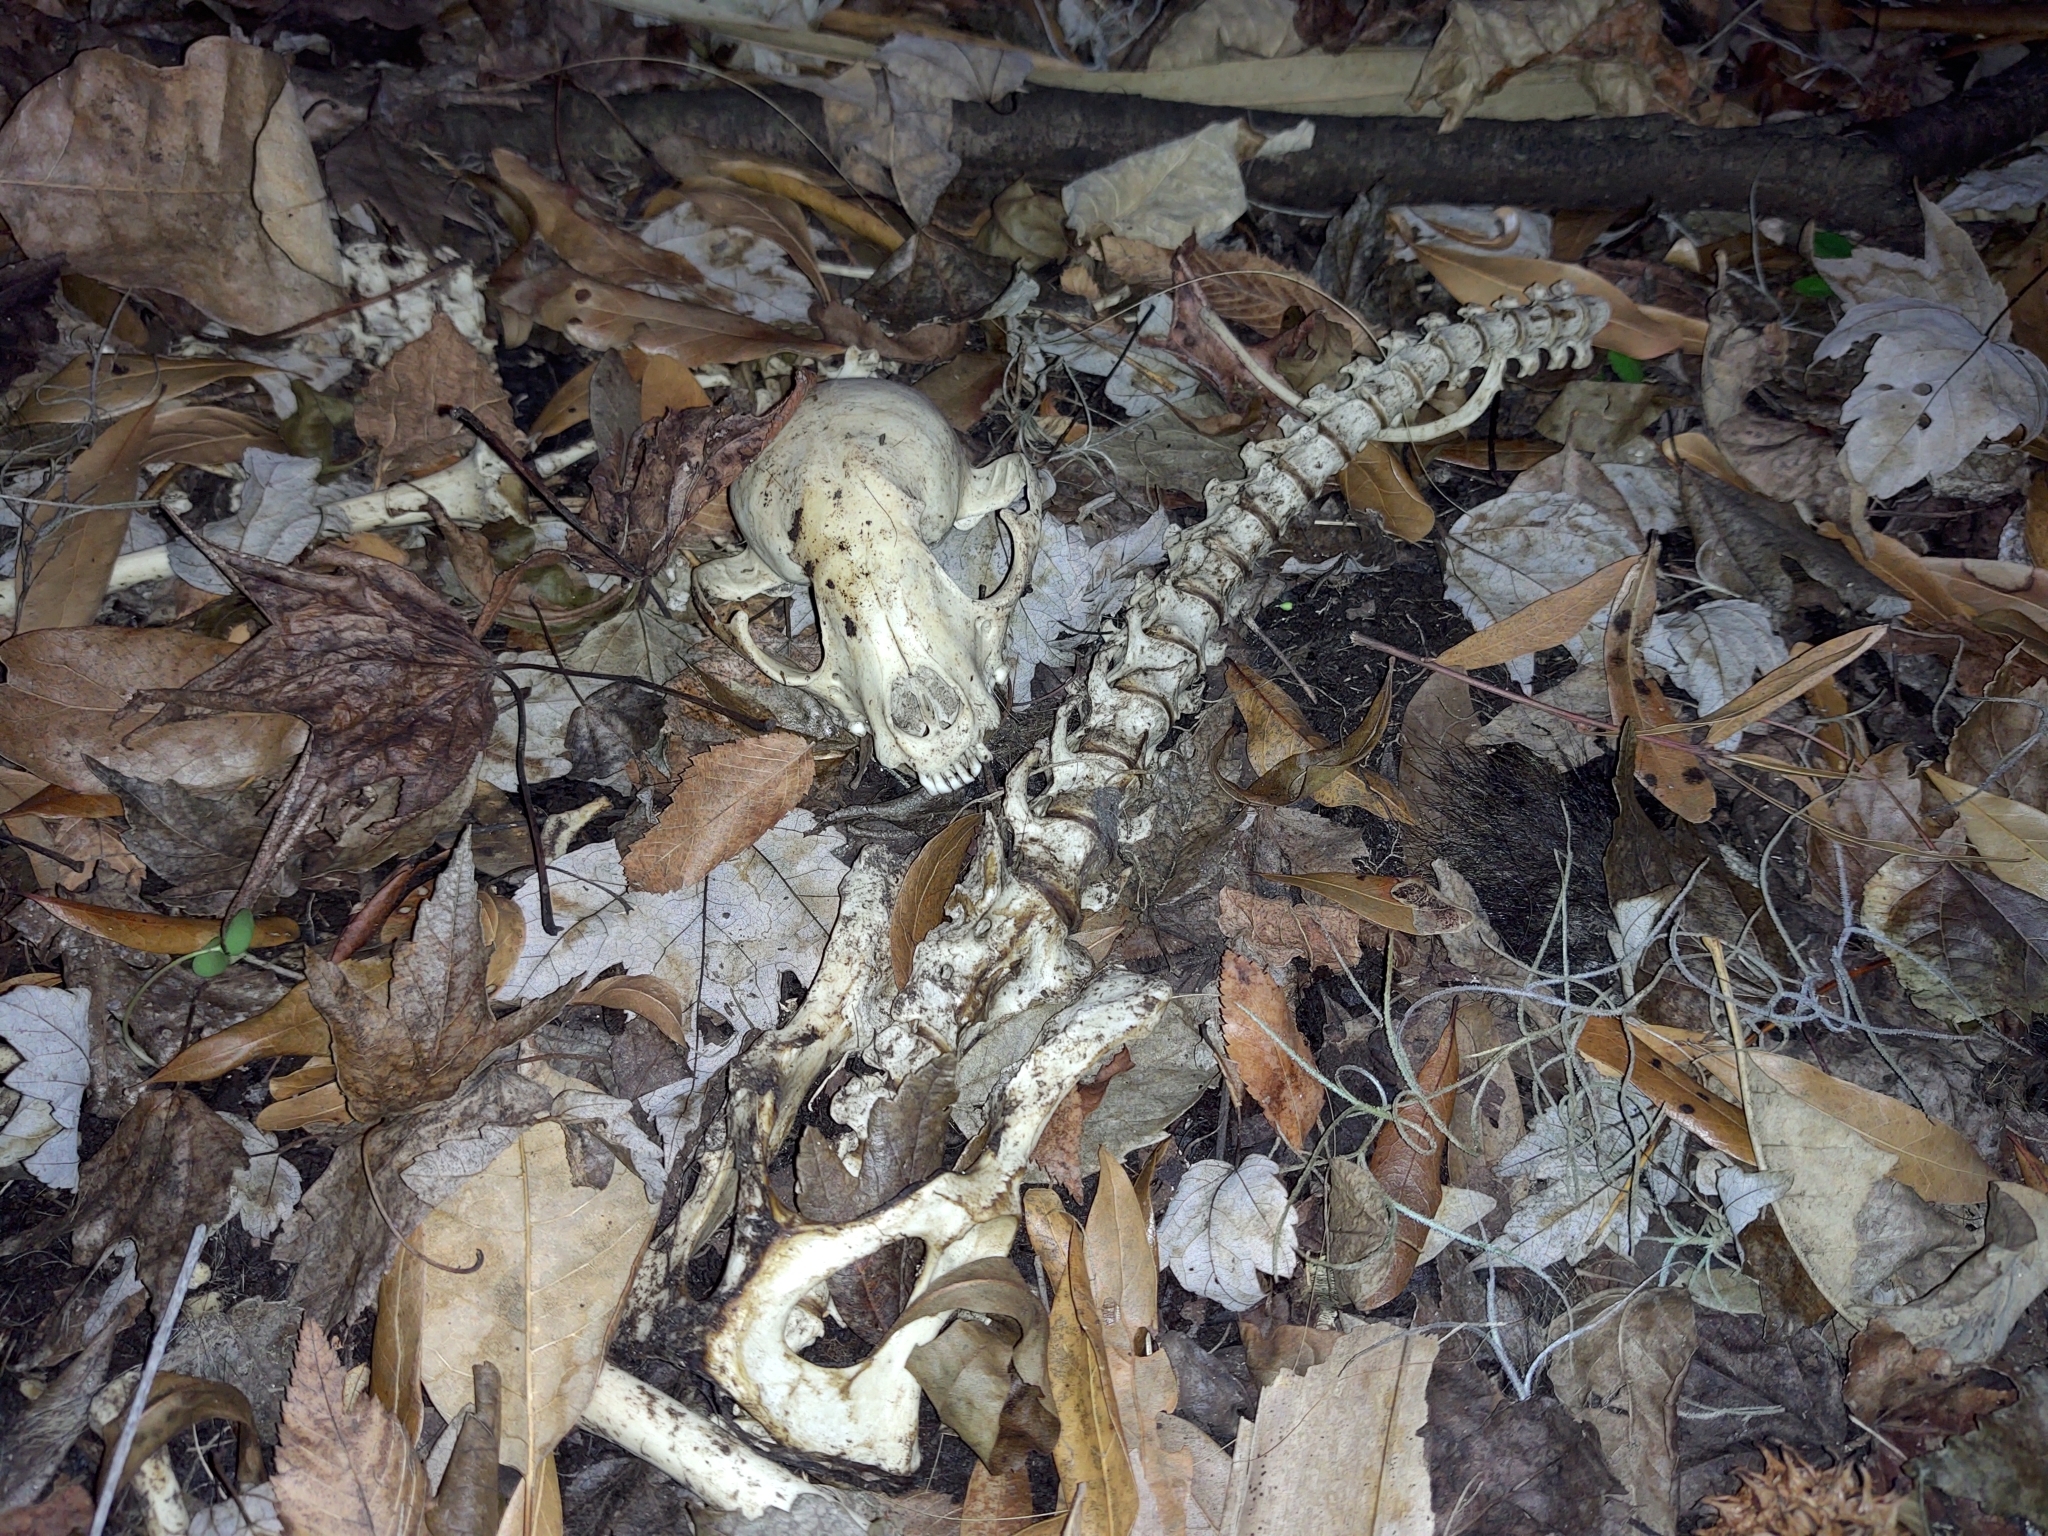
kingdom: Animalia
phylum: Chordata
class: Mammalia
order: Carnivora
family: Procyonidae
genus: Procyon
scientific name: Procyon lotor
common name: Raccoon
